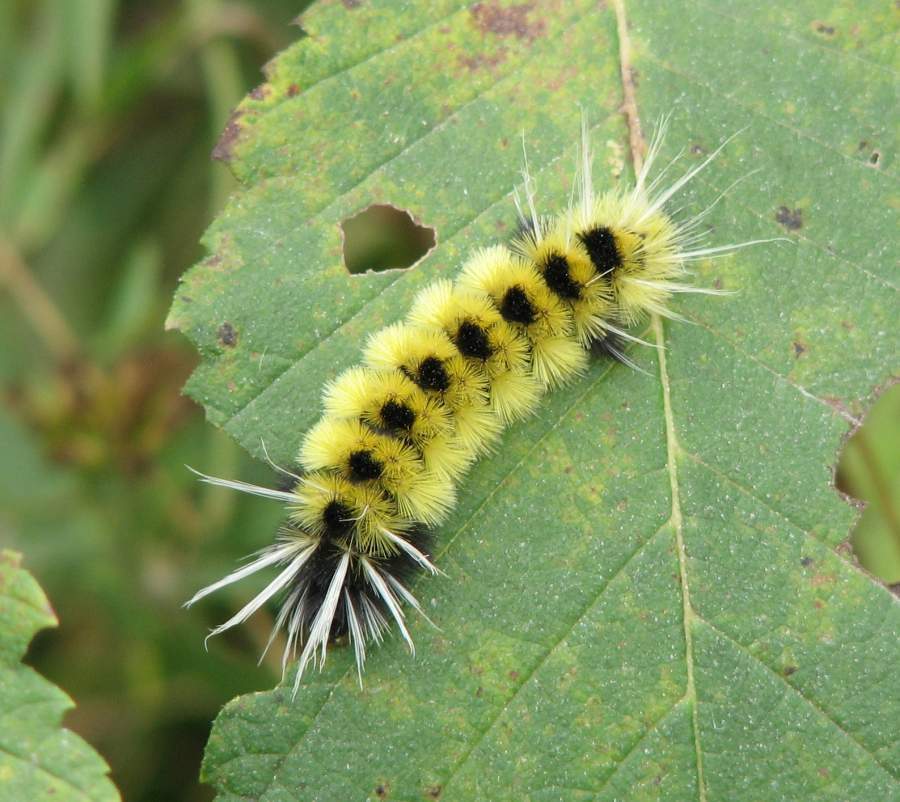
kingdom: Animalia
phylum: Arthropoda
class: Insecta
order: Lepidoptera
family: Erebidae
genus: Lophocampa
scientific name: Lophocampa maculata
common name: Spotted tussock moth
